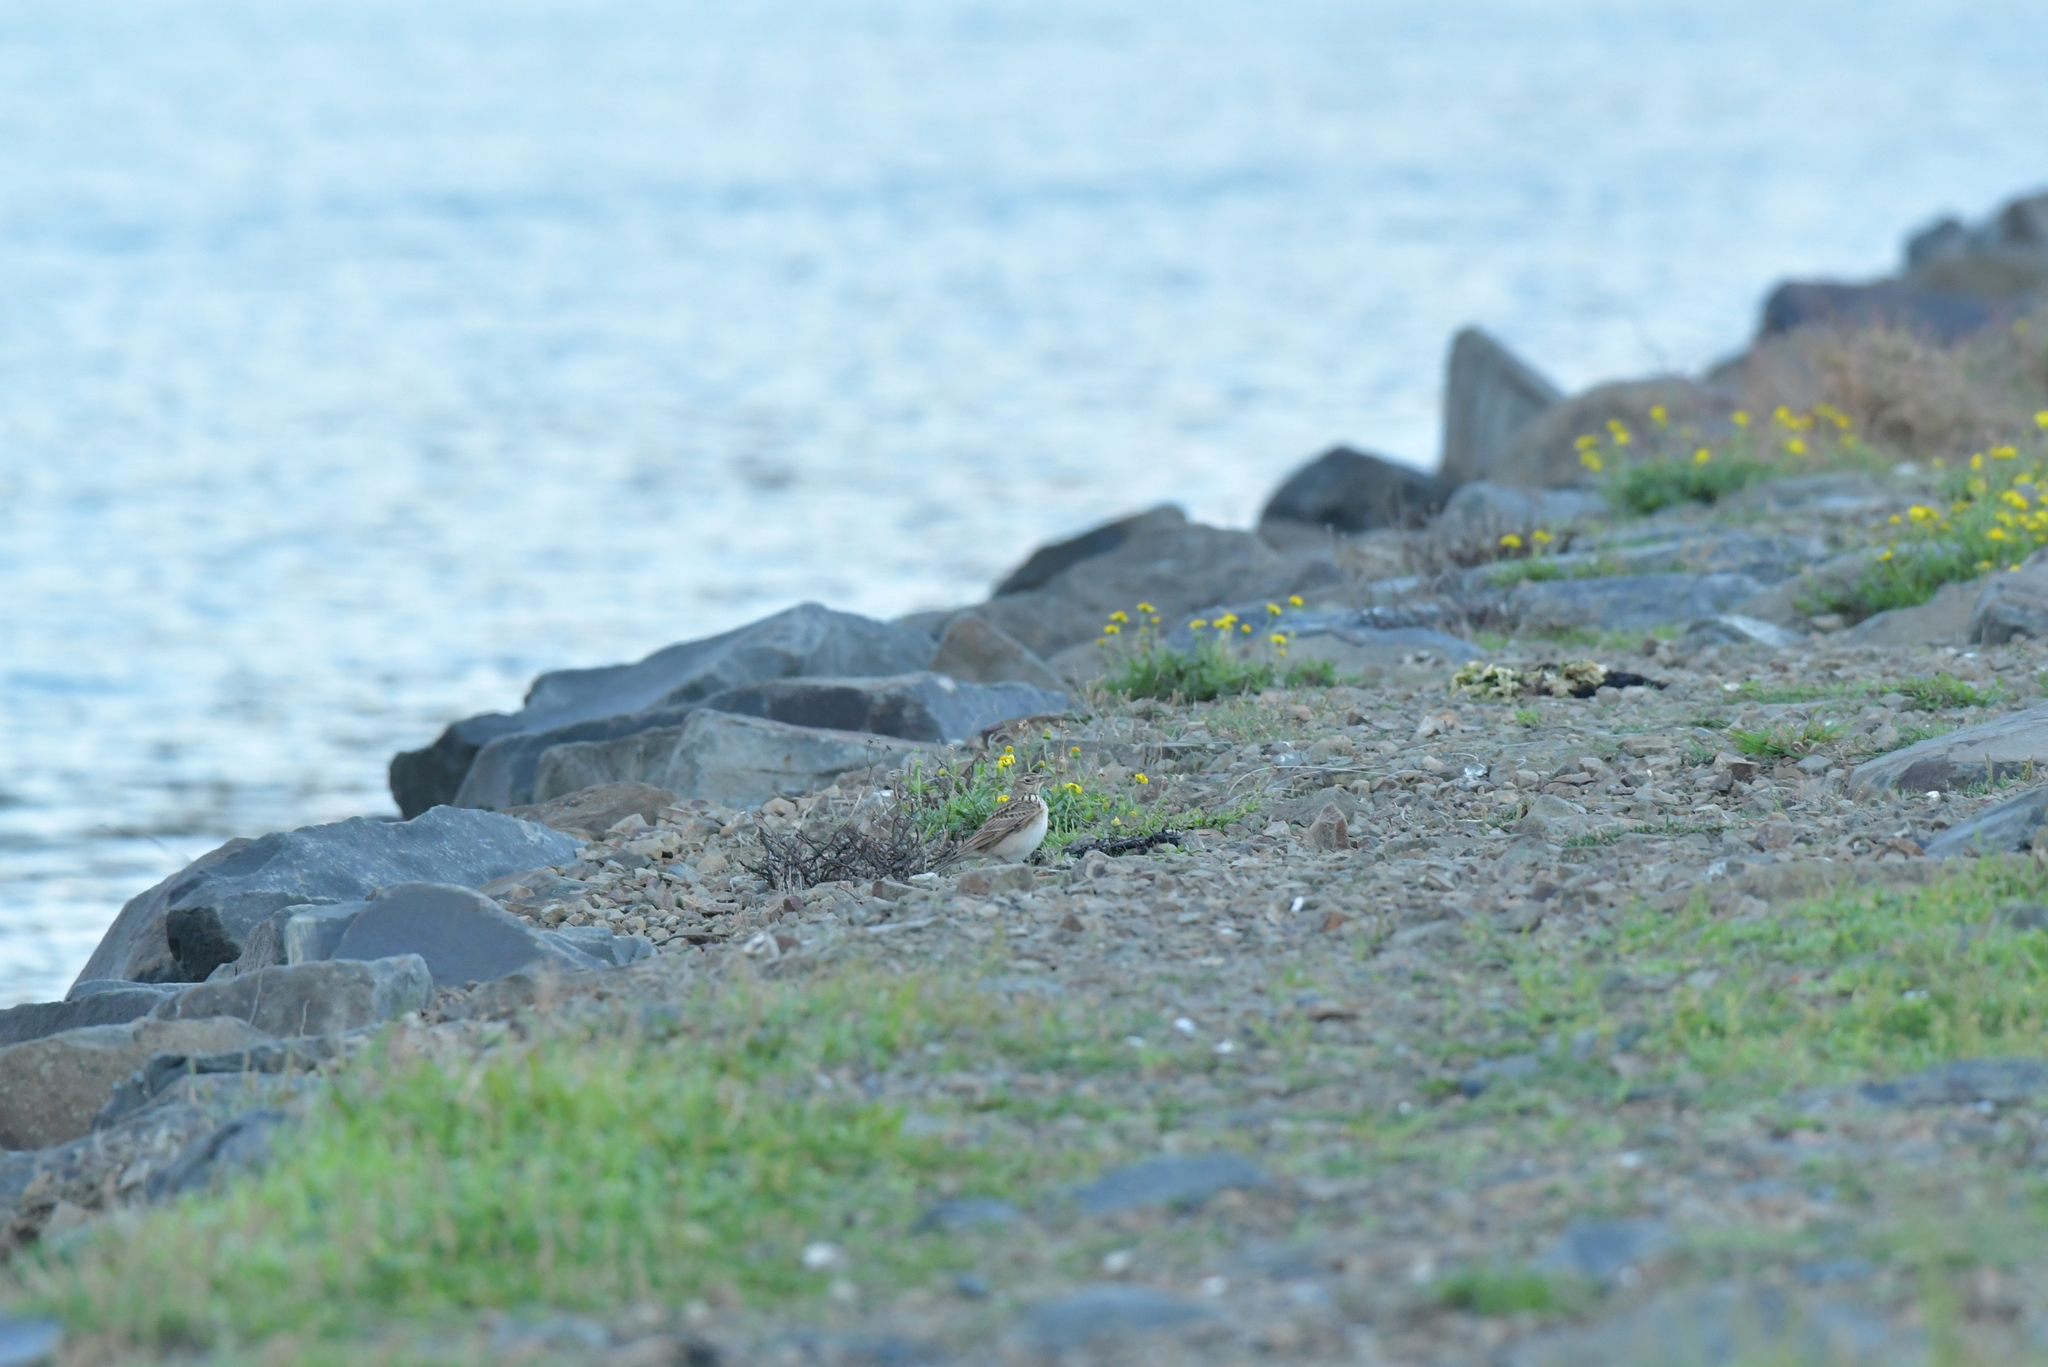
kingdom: Animalia
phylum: Chordata
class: Aves
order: Passeriformes
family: Alaudidae
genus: Alauda
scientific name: Alauda arvensis
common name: Eurasian skylark
